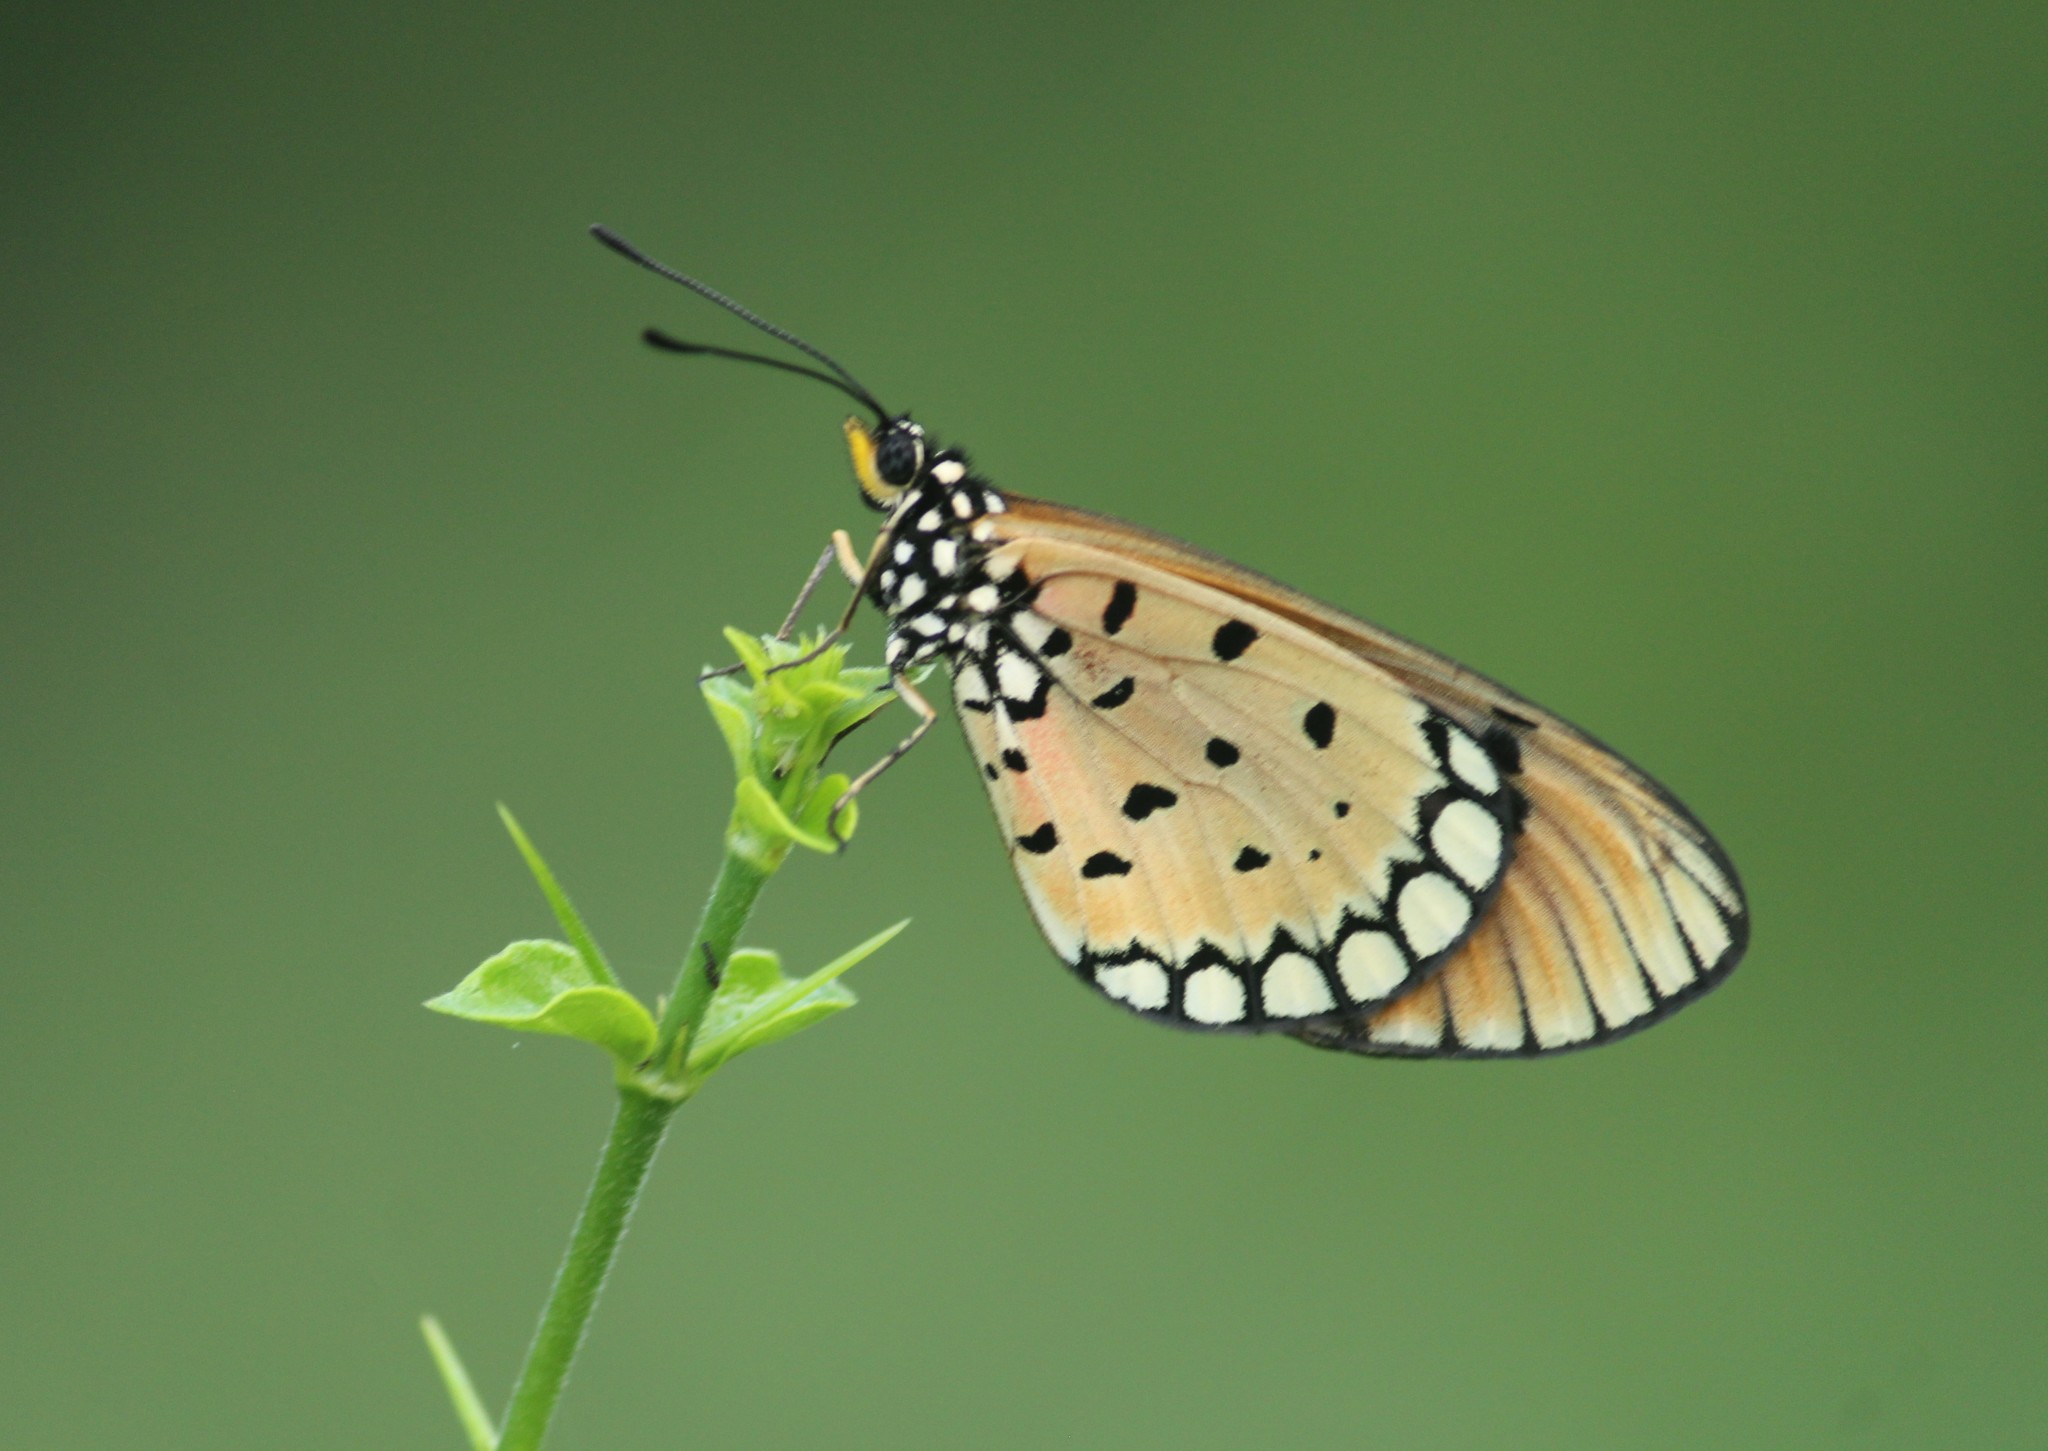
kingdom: Animalia
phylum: Arthropoda
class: Insecta
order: Lepidoptera
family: Nymphalidae
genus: Acraea
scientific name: Acraea terpsicore
